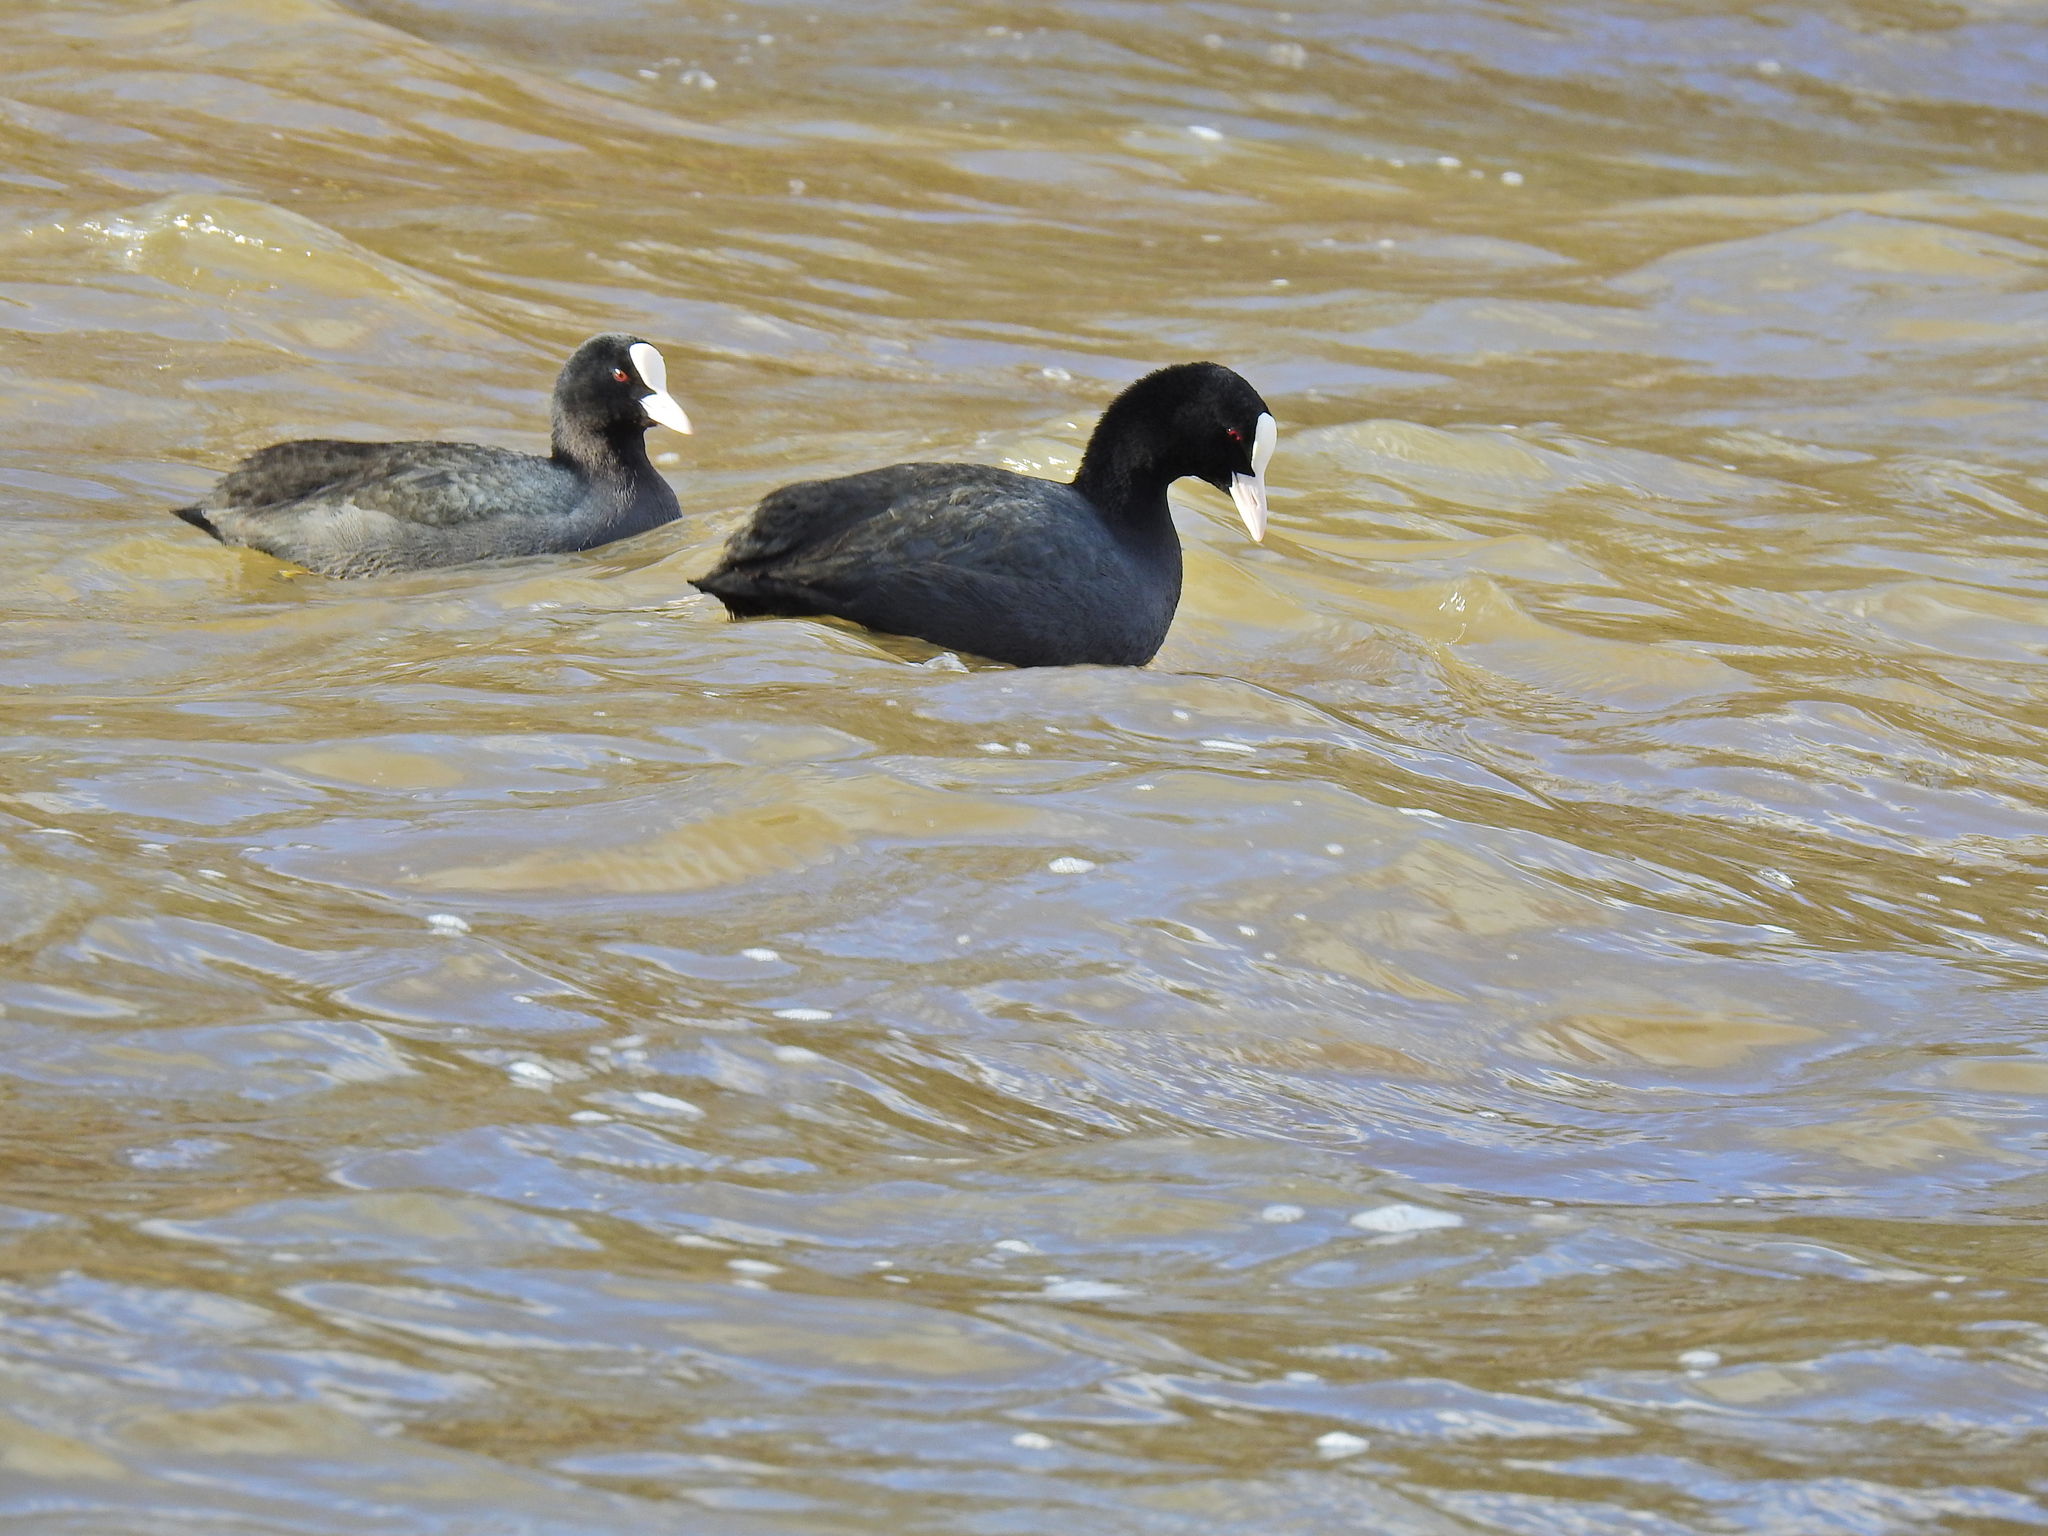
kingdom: Animalia
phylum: Chordata
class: Aves
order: Gruiformes
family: Rallidae
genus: Fulica
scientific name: Fulica atra
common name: Eurasian coot
